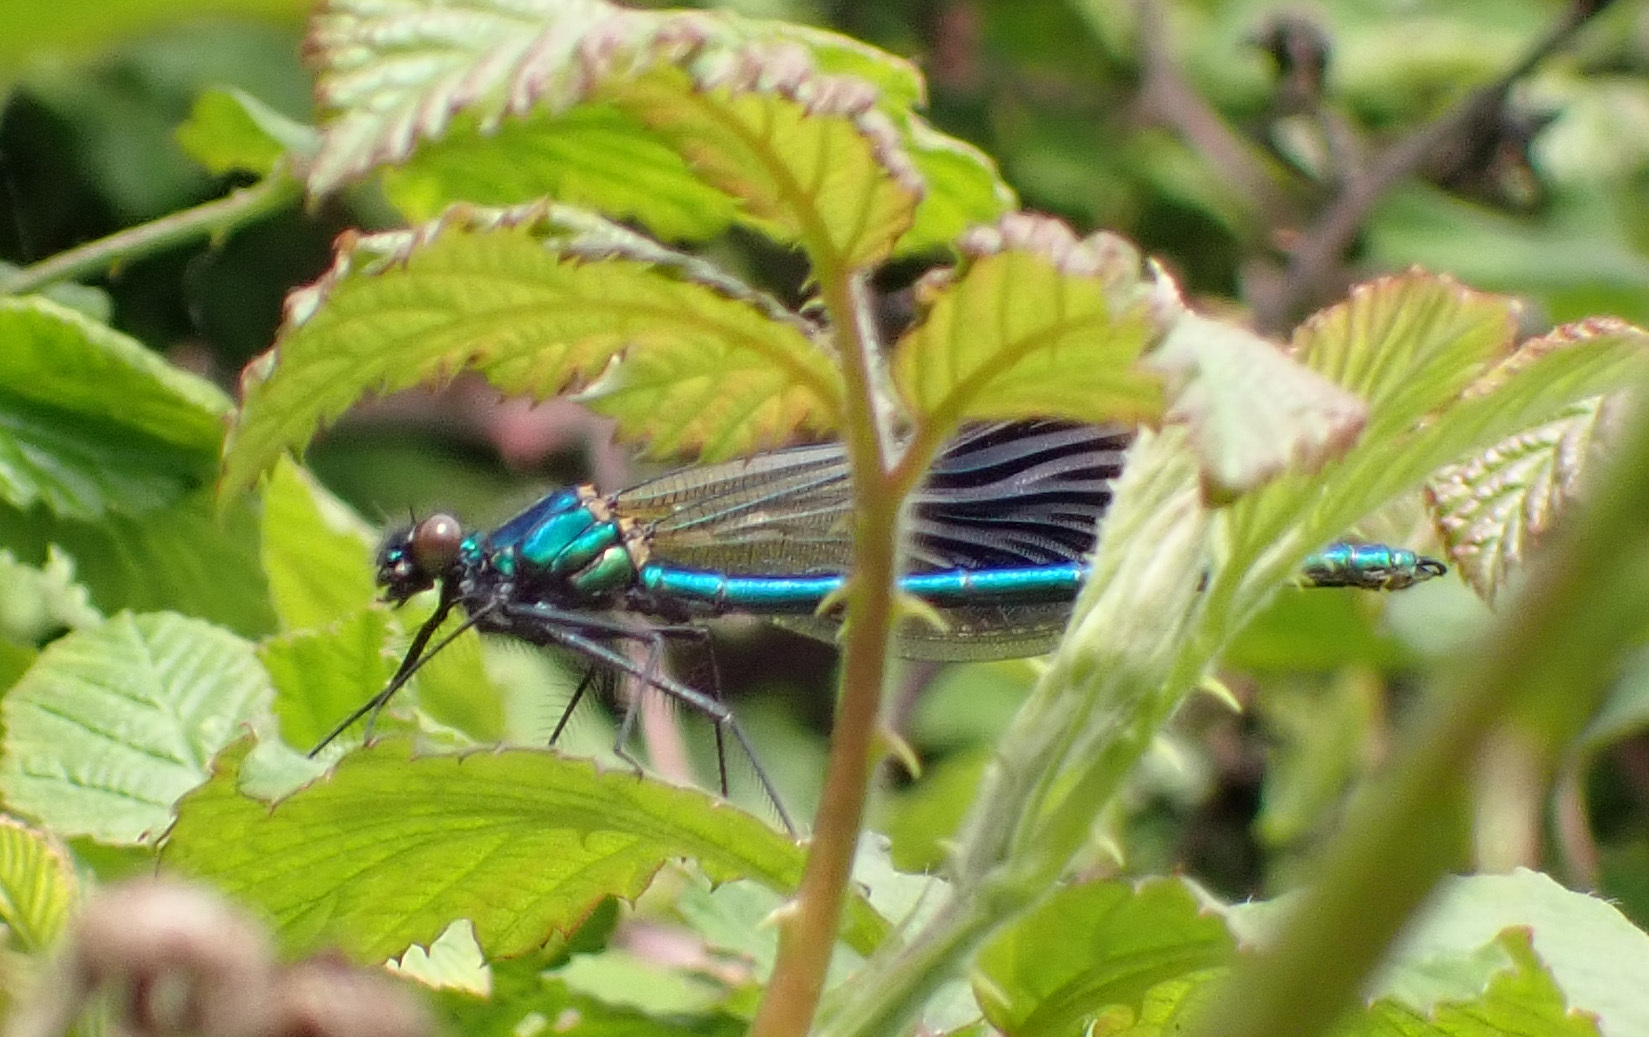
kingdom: Animalia
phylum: Arthropoda
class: Insecta
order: Odonata
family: Calopterygidae
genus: Calopteryx
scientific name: Calopteryx splendens
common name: Banded demoiselle
